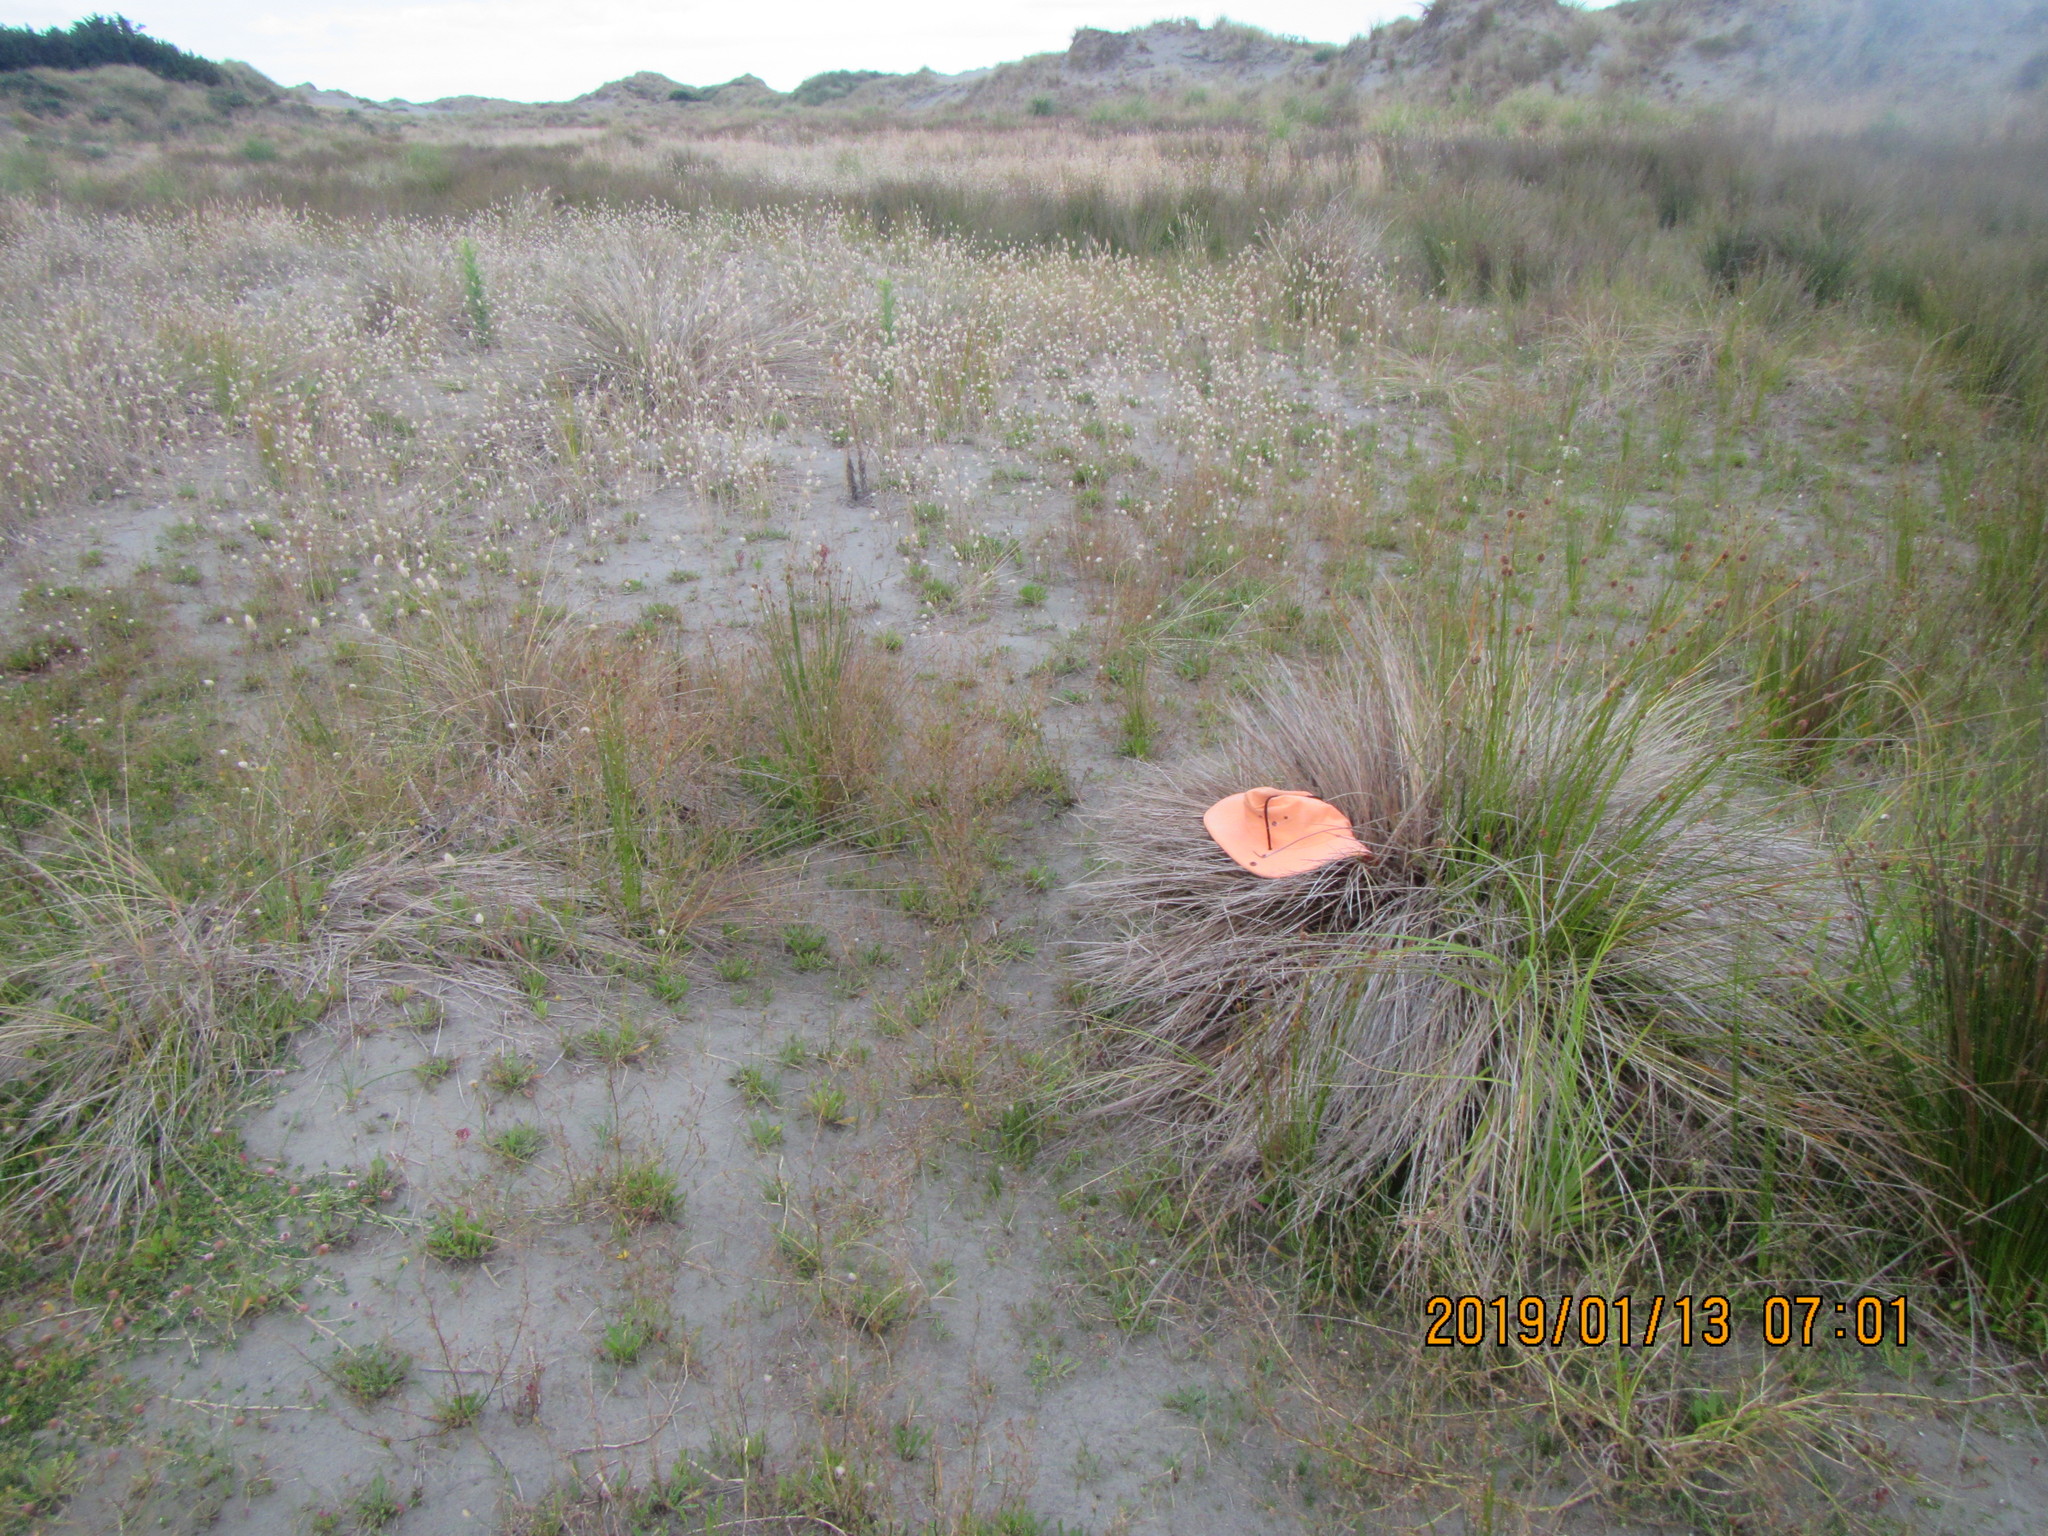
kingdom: Animalia
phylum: Arthropoda
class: Malacostraca
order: Isopoda
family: Porcellionidae
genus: Porcellio
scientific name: Porcellio scaber
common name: Common rough woodlouse
